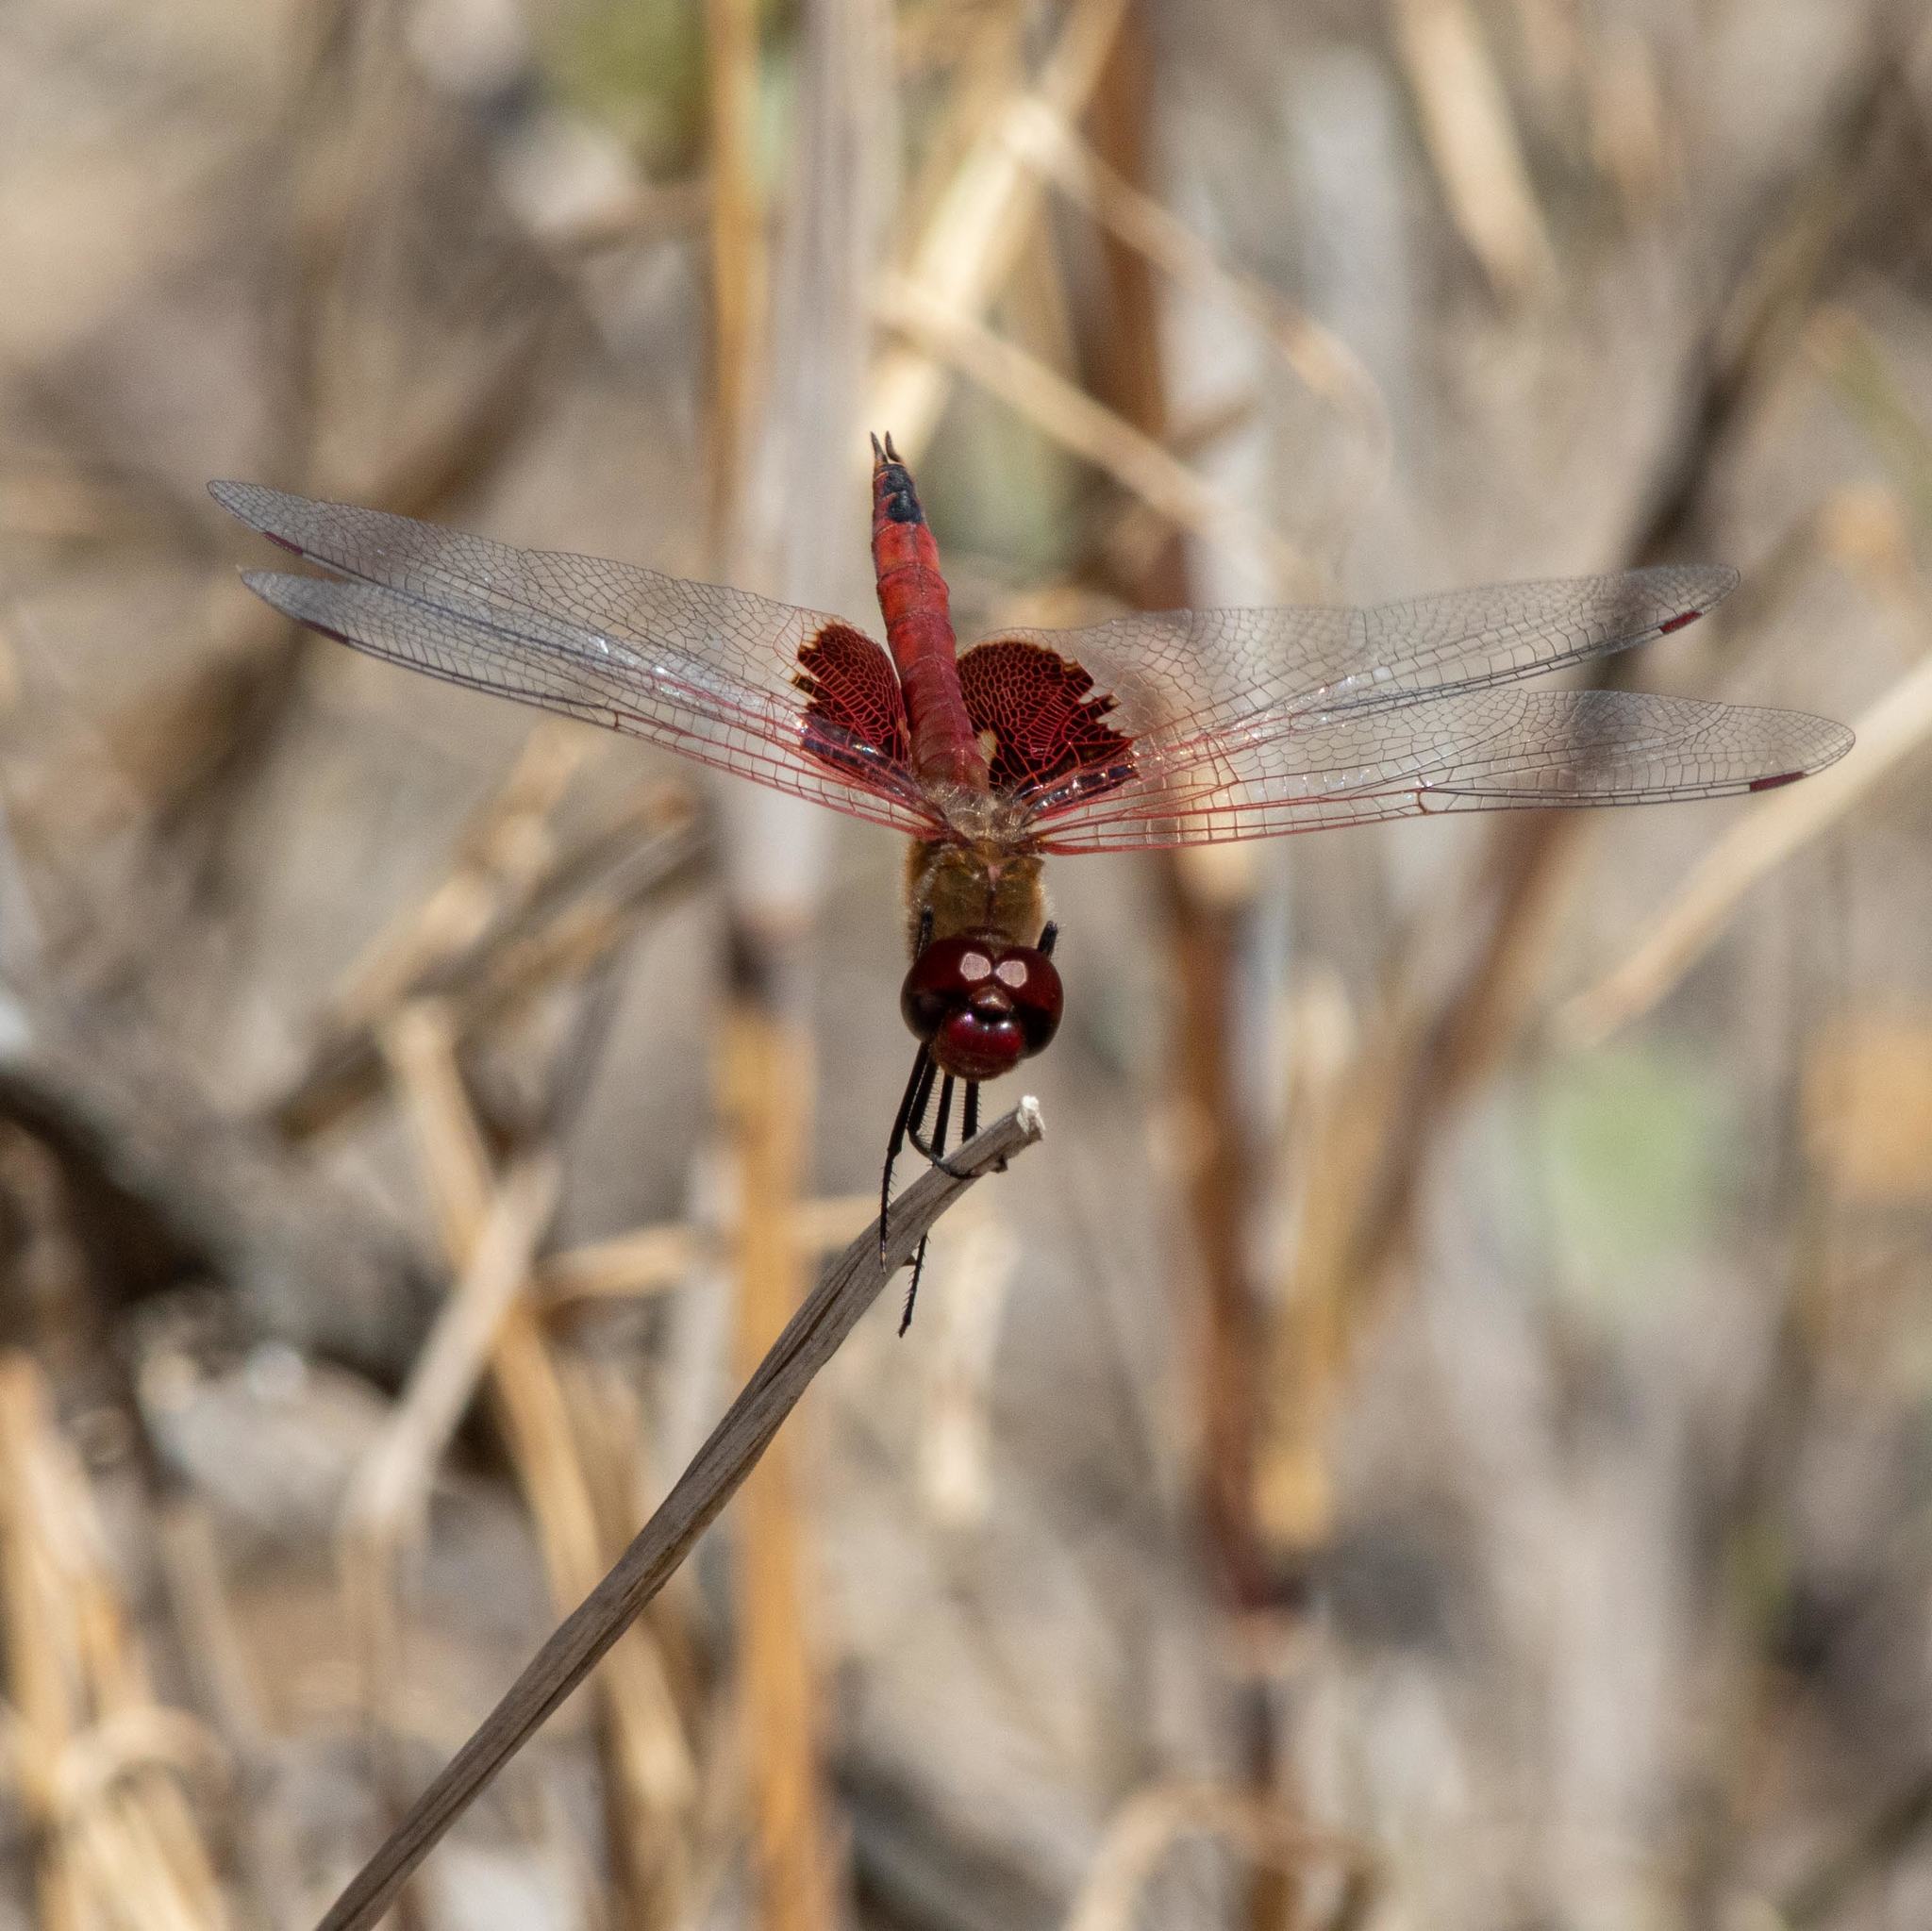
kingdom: Animalia
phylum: Arthropoda
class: Insecta
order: Odonata
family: Libellulidae
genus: Tramea
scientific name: Tramea onusta
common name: Red saddlebags
